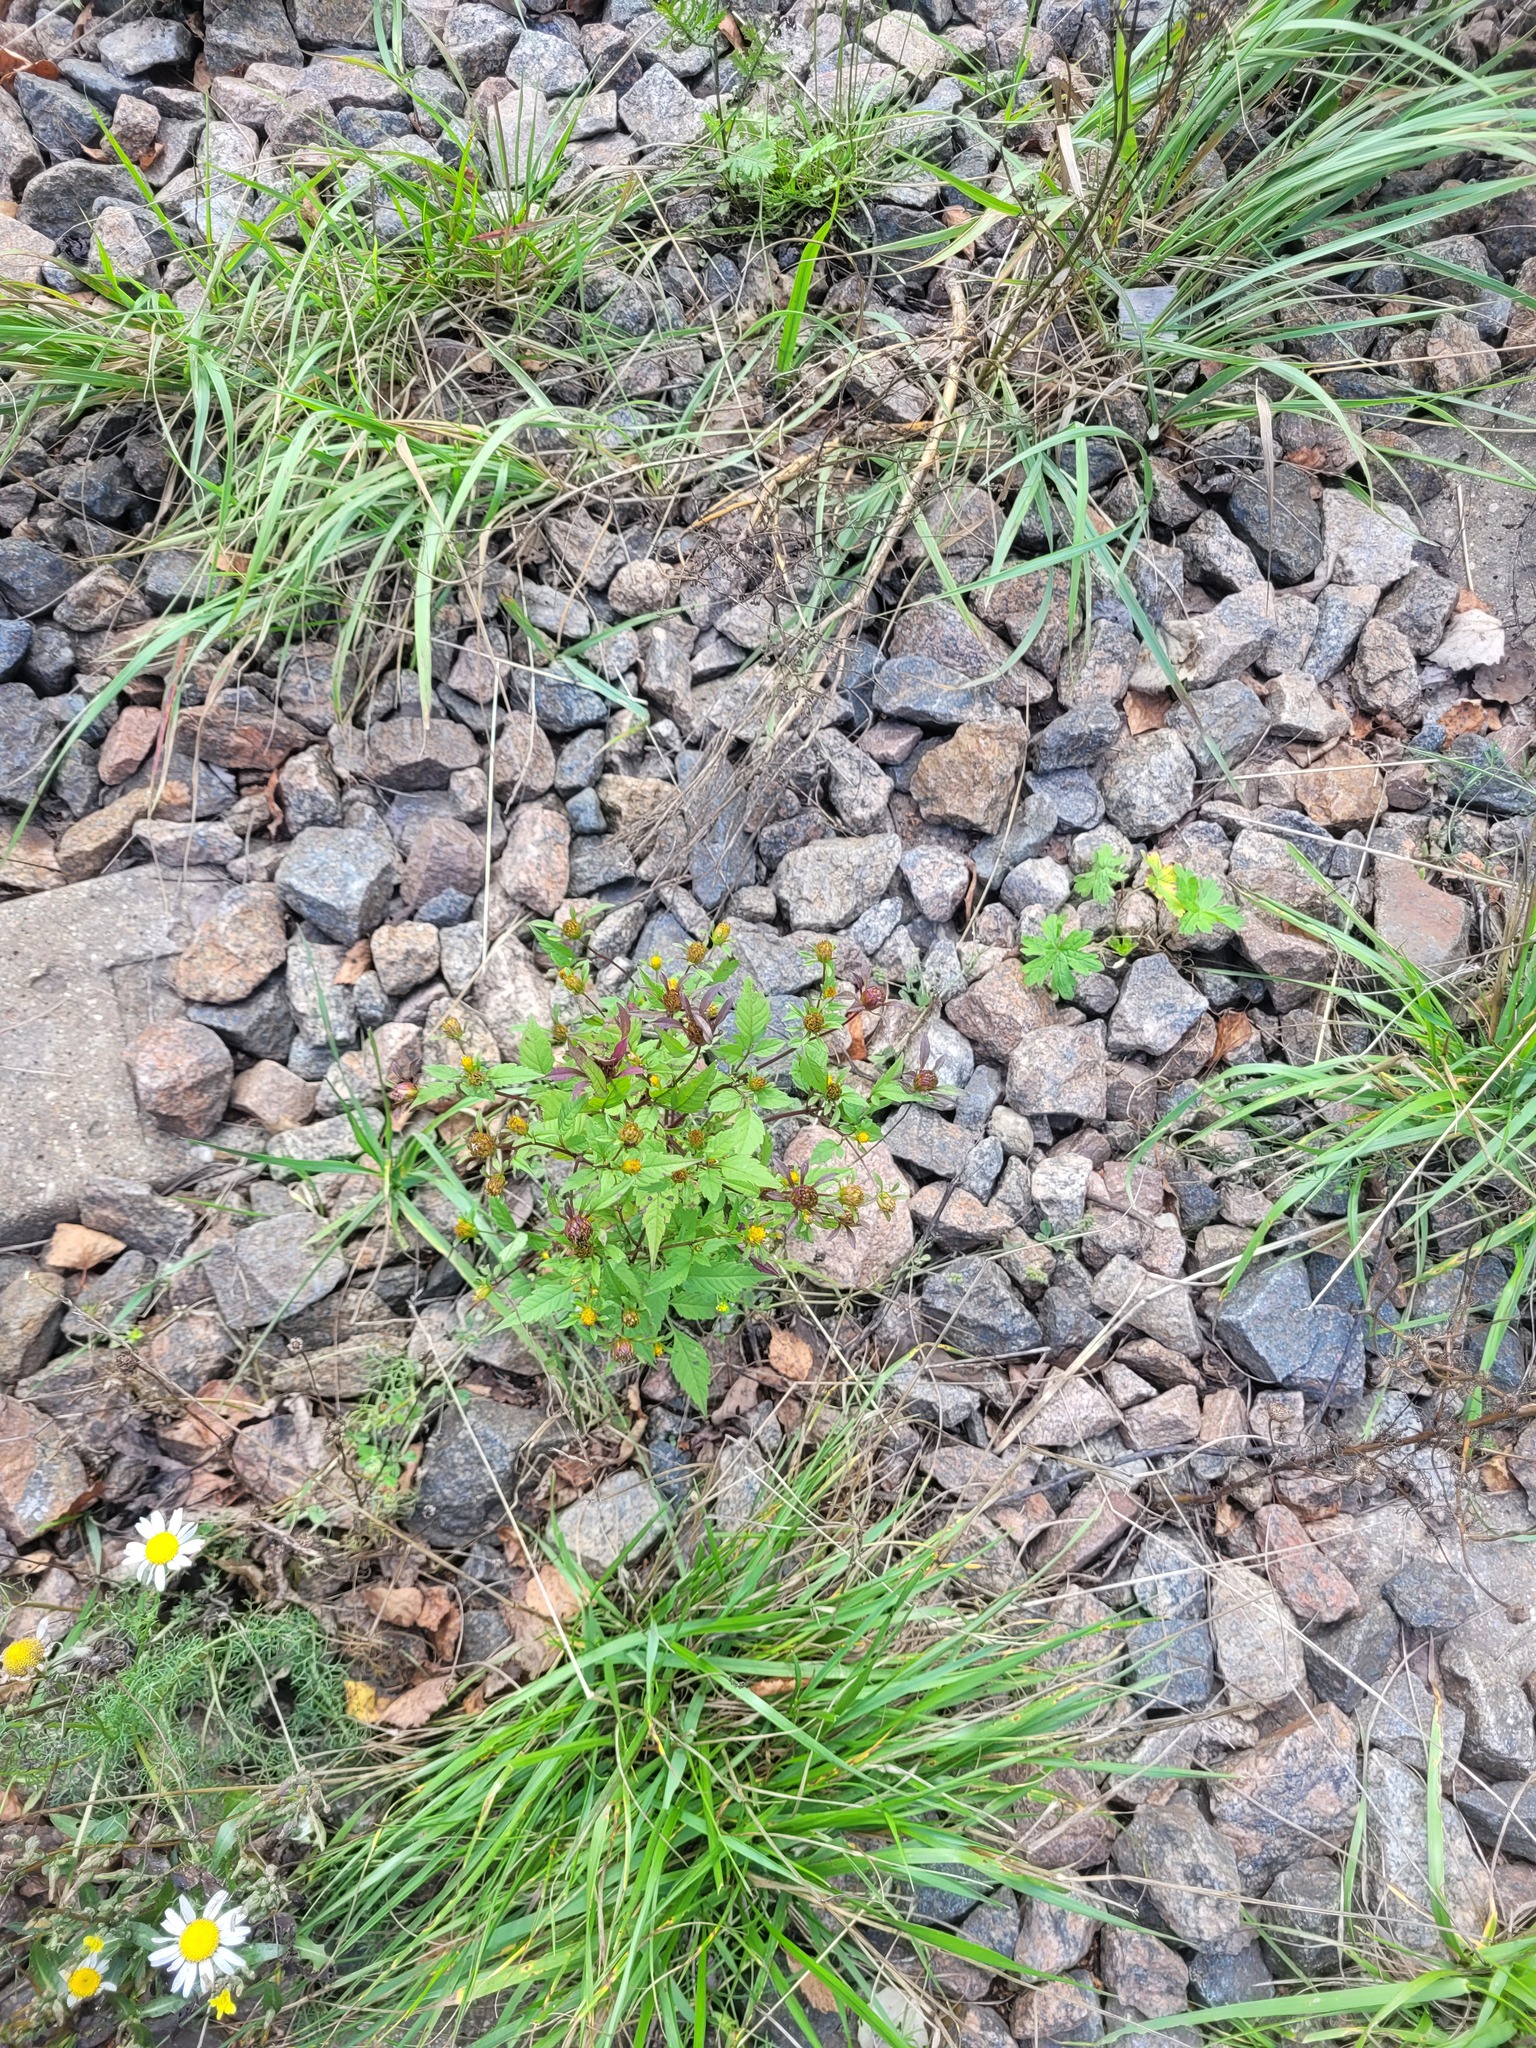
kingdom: Plantae
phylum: Tracheophyta
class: Magnoliopsida
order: Asterales
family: Asteraceae
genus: Bidens
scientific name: Bidens frondosa
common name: Beggarticks
